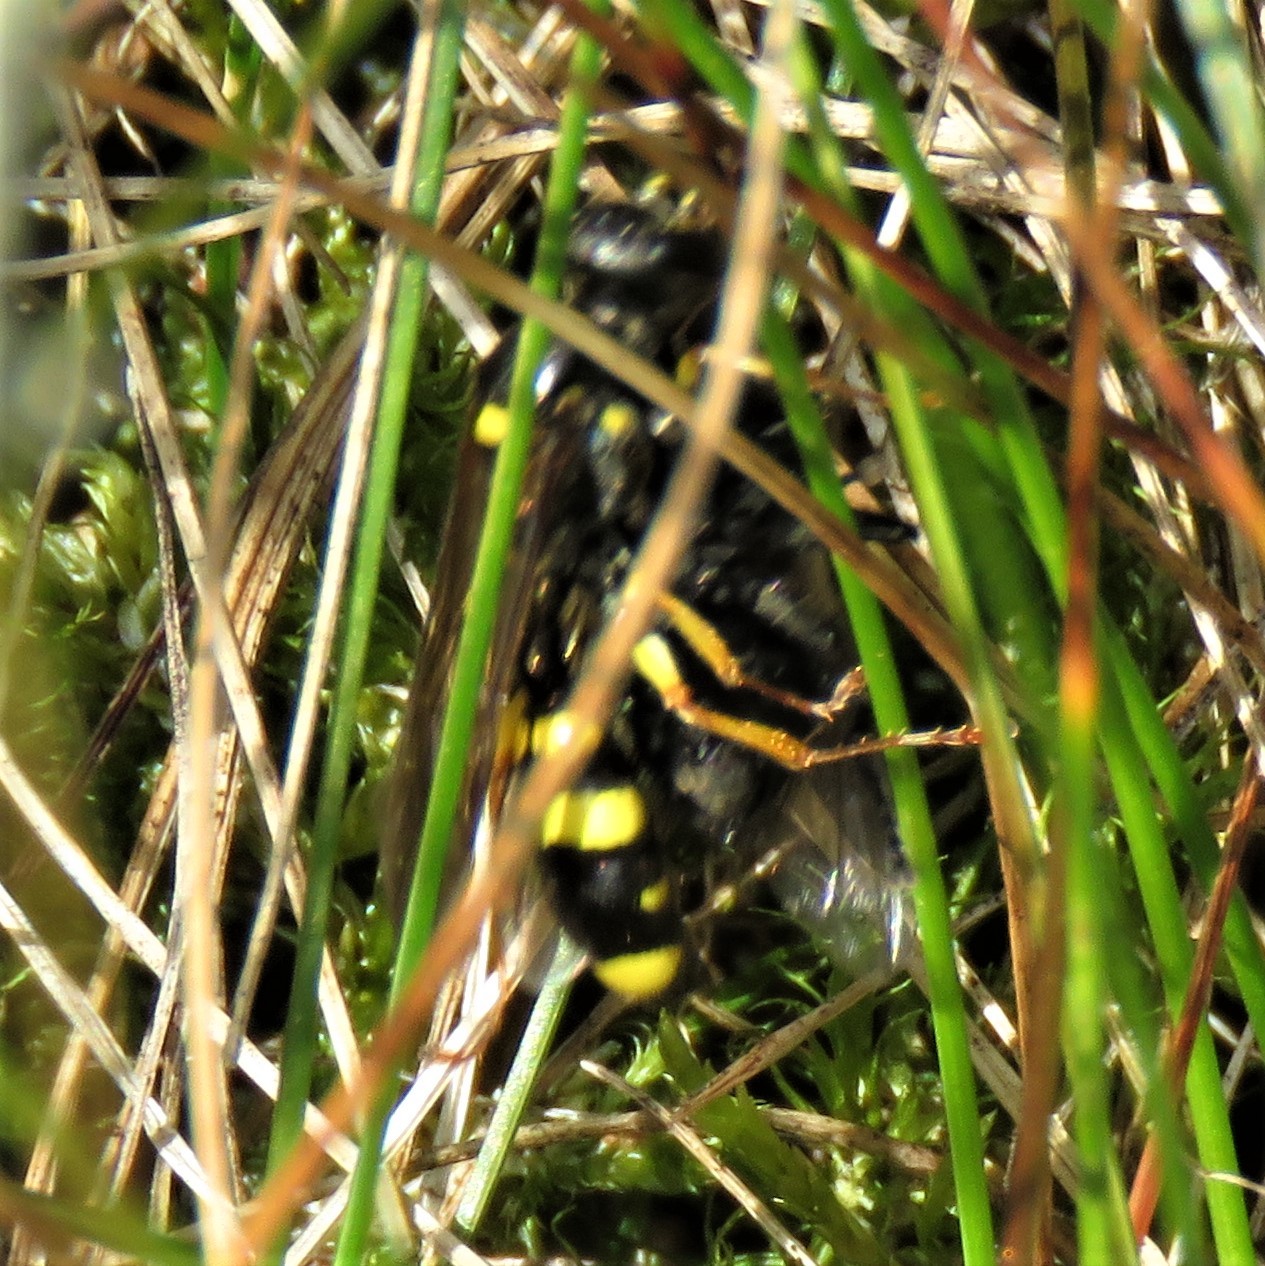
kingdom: Animalia
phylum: Arthropoda
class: Insecta
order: Hymenoptera
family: Crabronidae
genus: Mellinus
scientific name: Mellinus arvensis
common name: Field digger wasp
